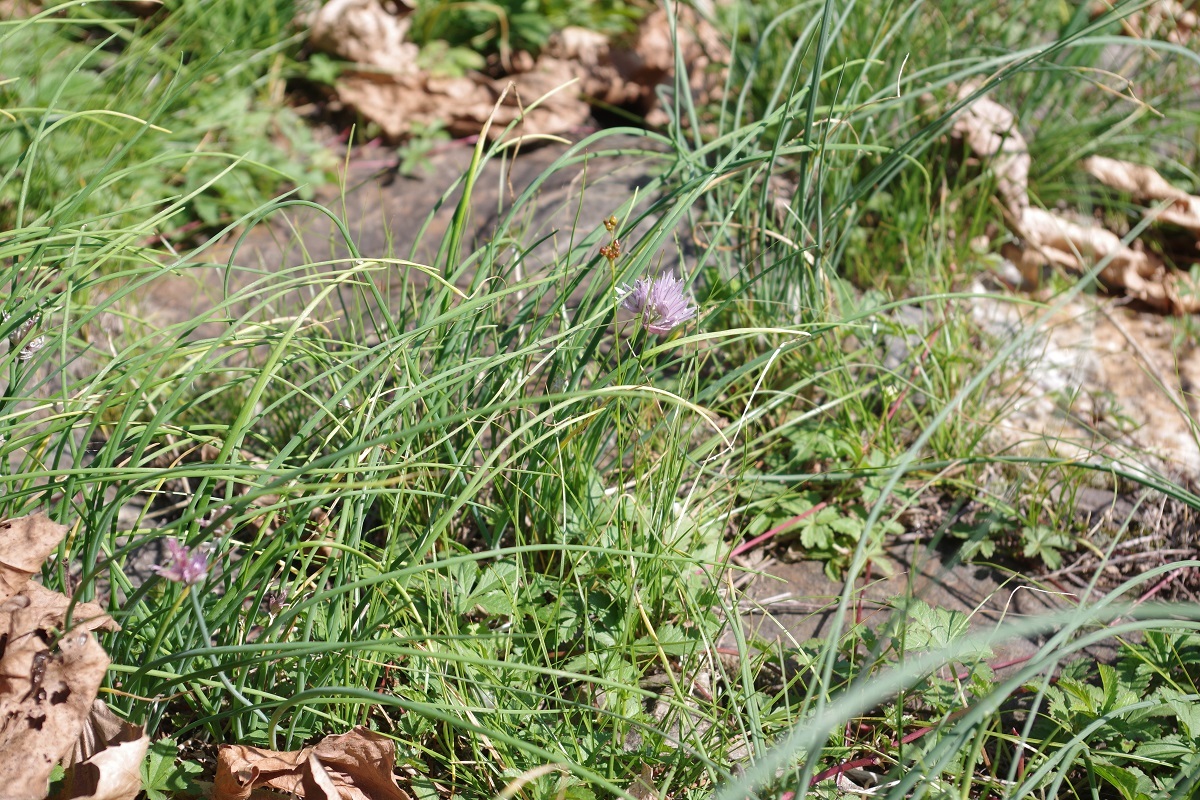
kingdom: Plantae
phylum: Tracheophyta
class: Liliopsida
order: Asparagales
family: Amaryllidaceae
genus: Allium
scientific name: Allium schoenoprasum
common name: Chives
